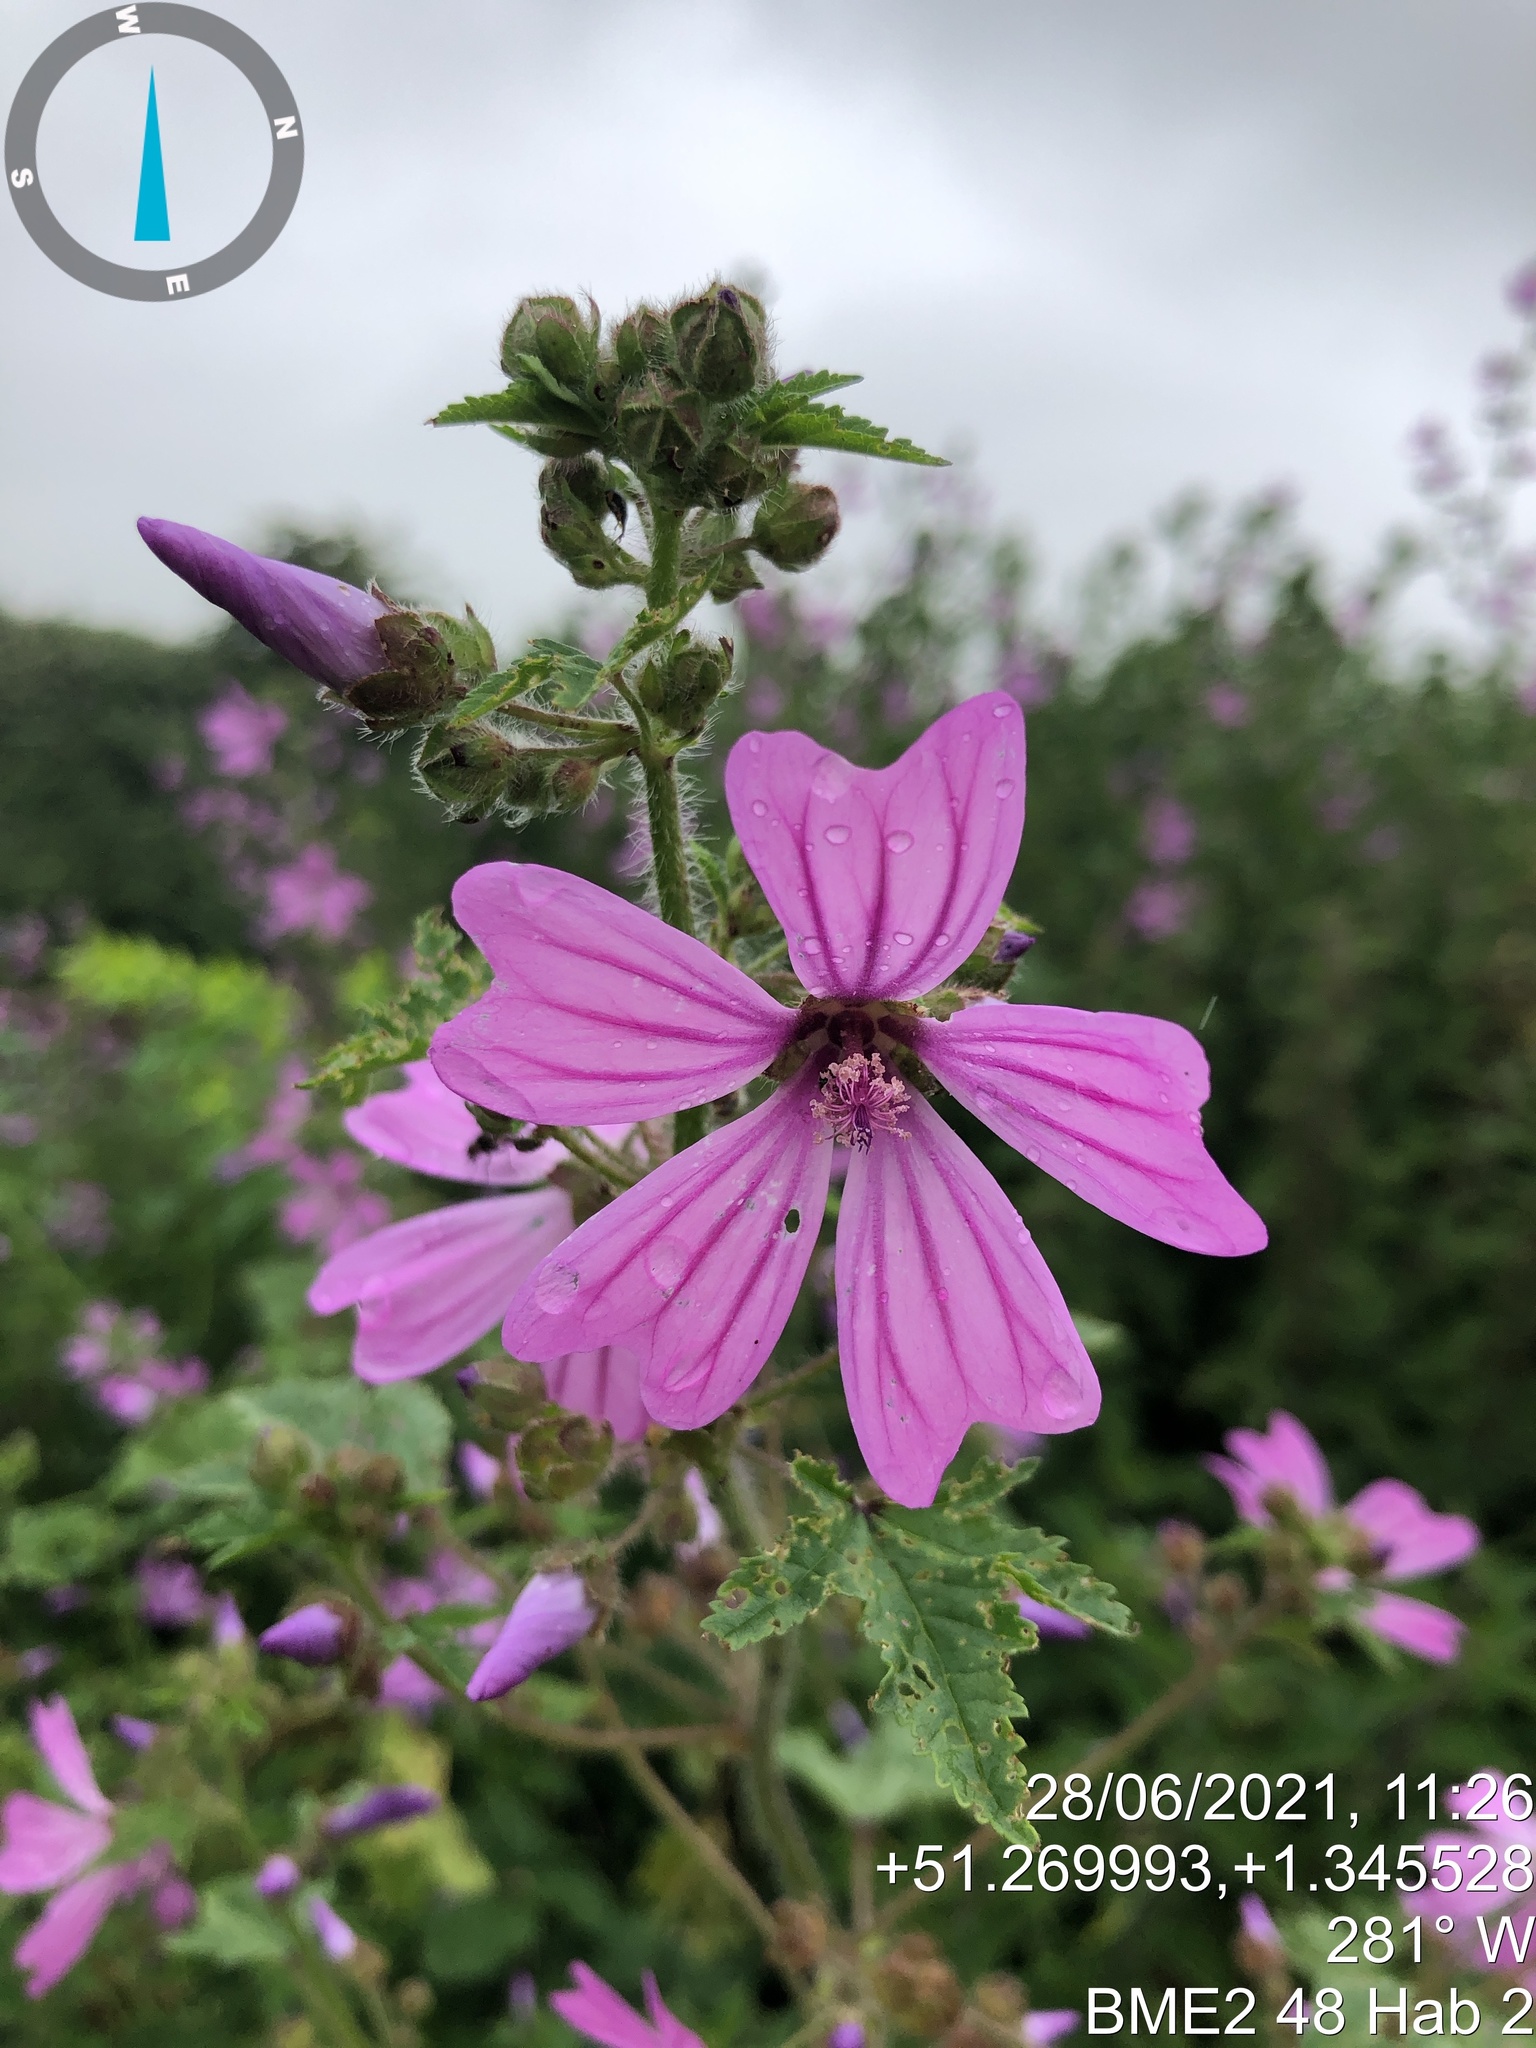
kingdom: Plantae
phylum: Tracheophyta
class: Magnoliopsida
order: Malvales
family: Malvaceae
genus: Malva
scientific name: Malva sylvestris
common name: Common mallow
